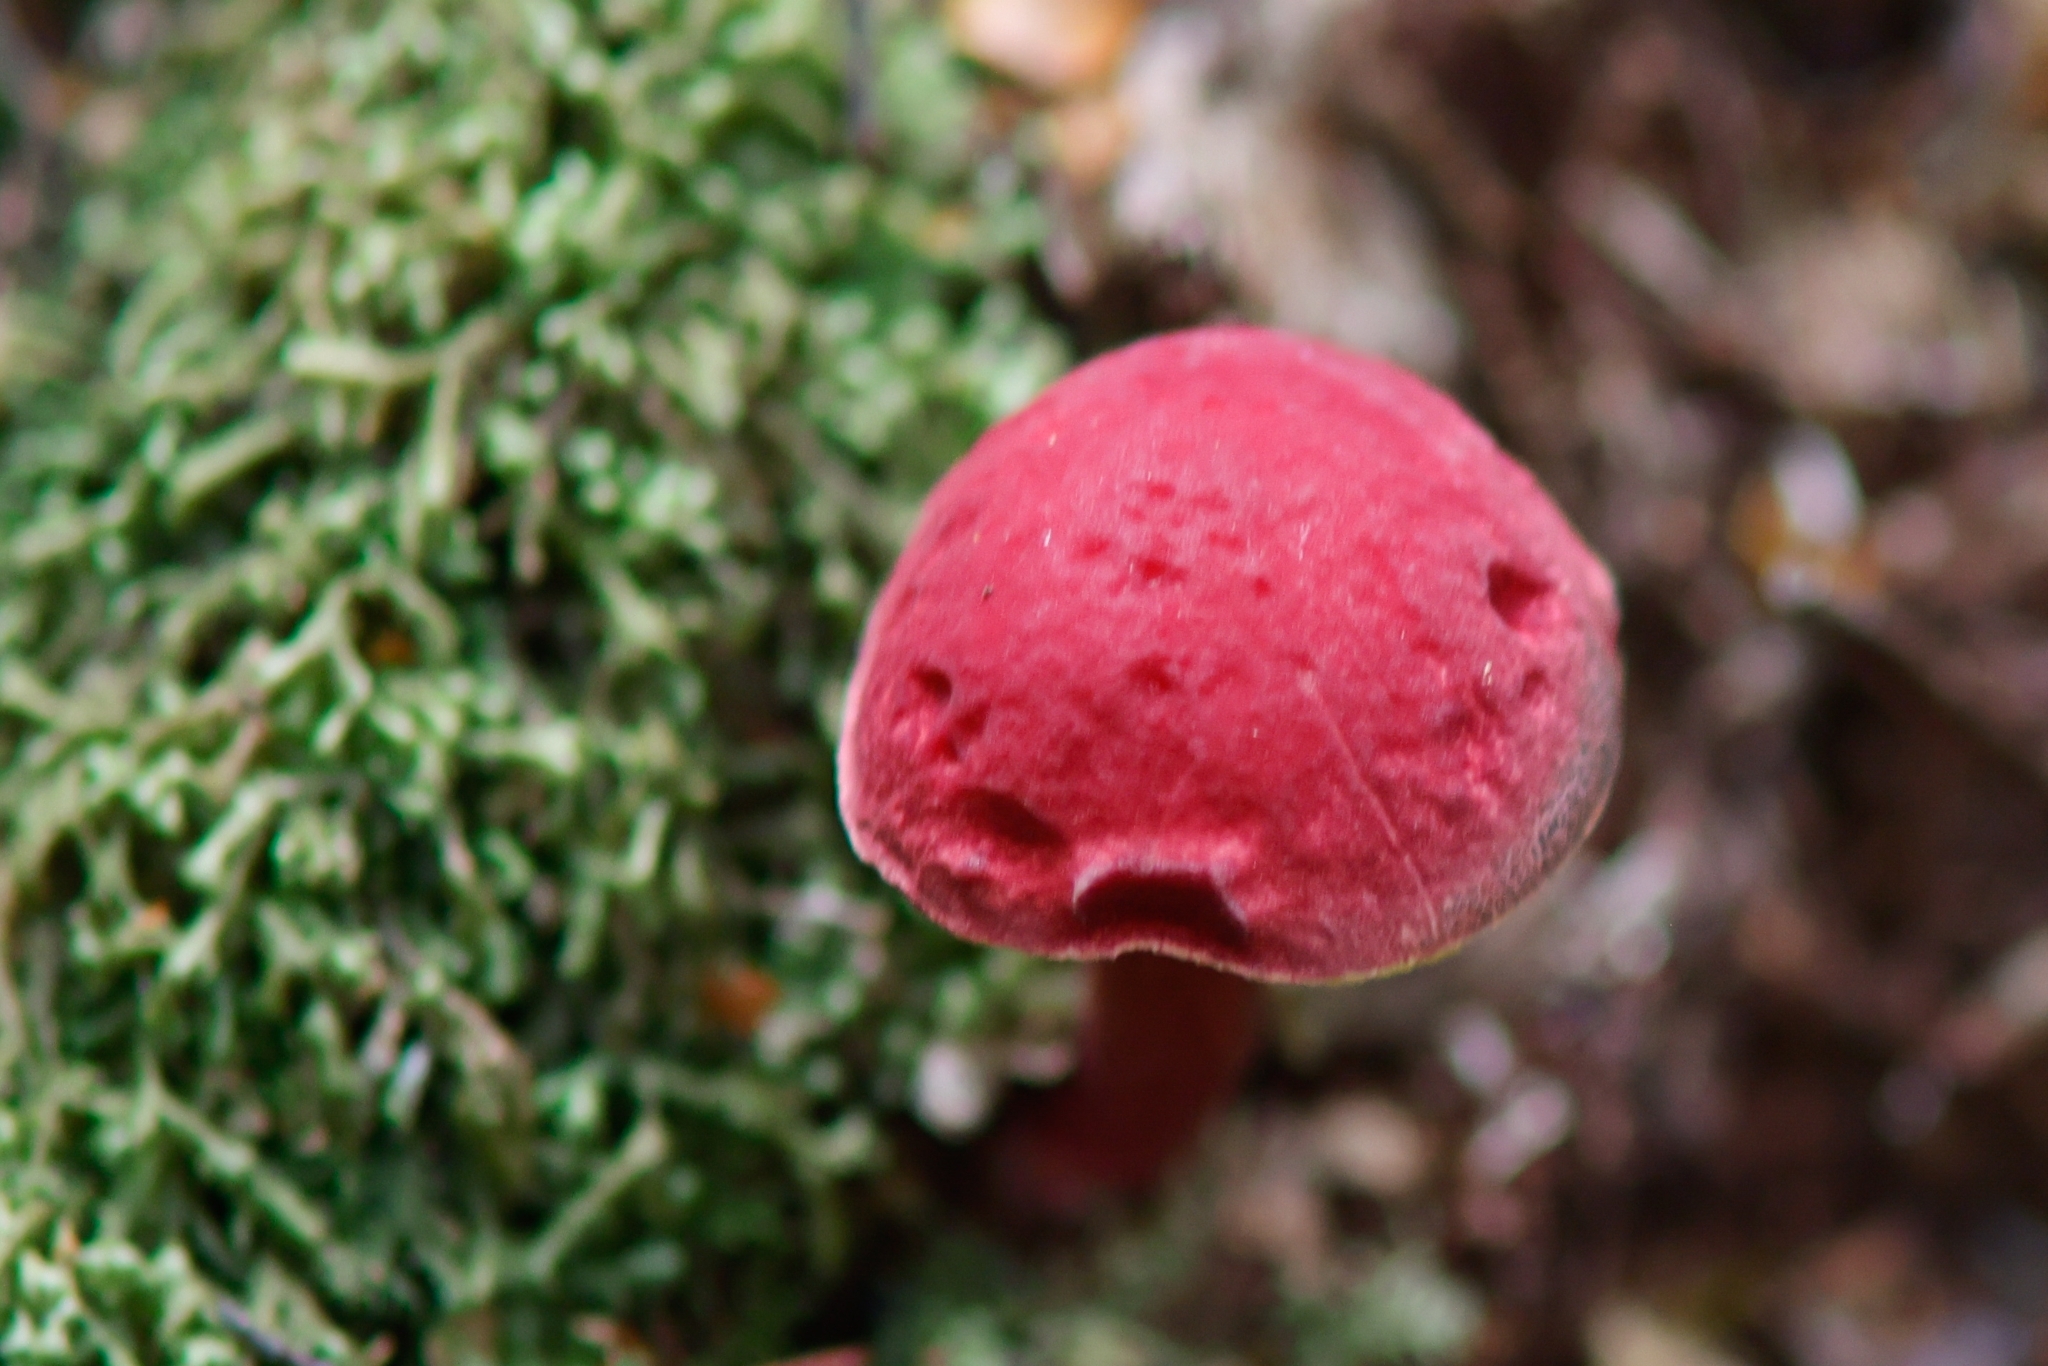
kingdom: Fungi
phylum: Basidiomycota
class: Agaricomycetes
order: Boletales
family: Boletaceae
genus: Boletellus
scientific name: Boletellus obscurecoccineus
